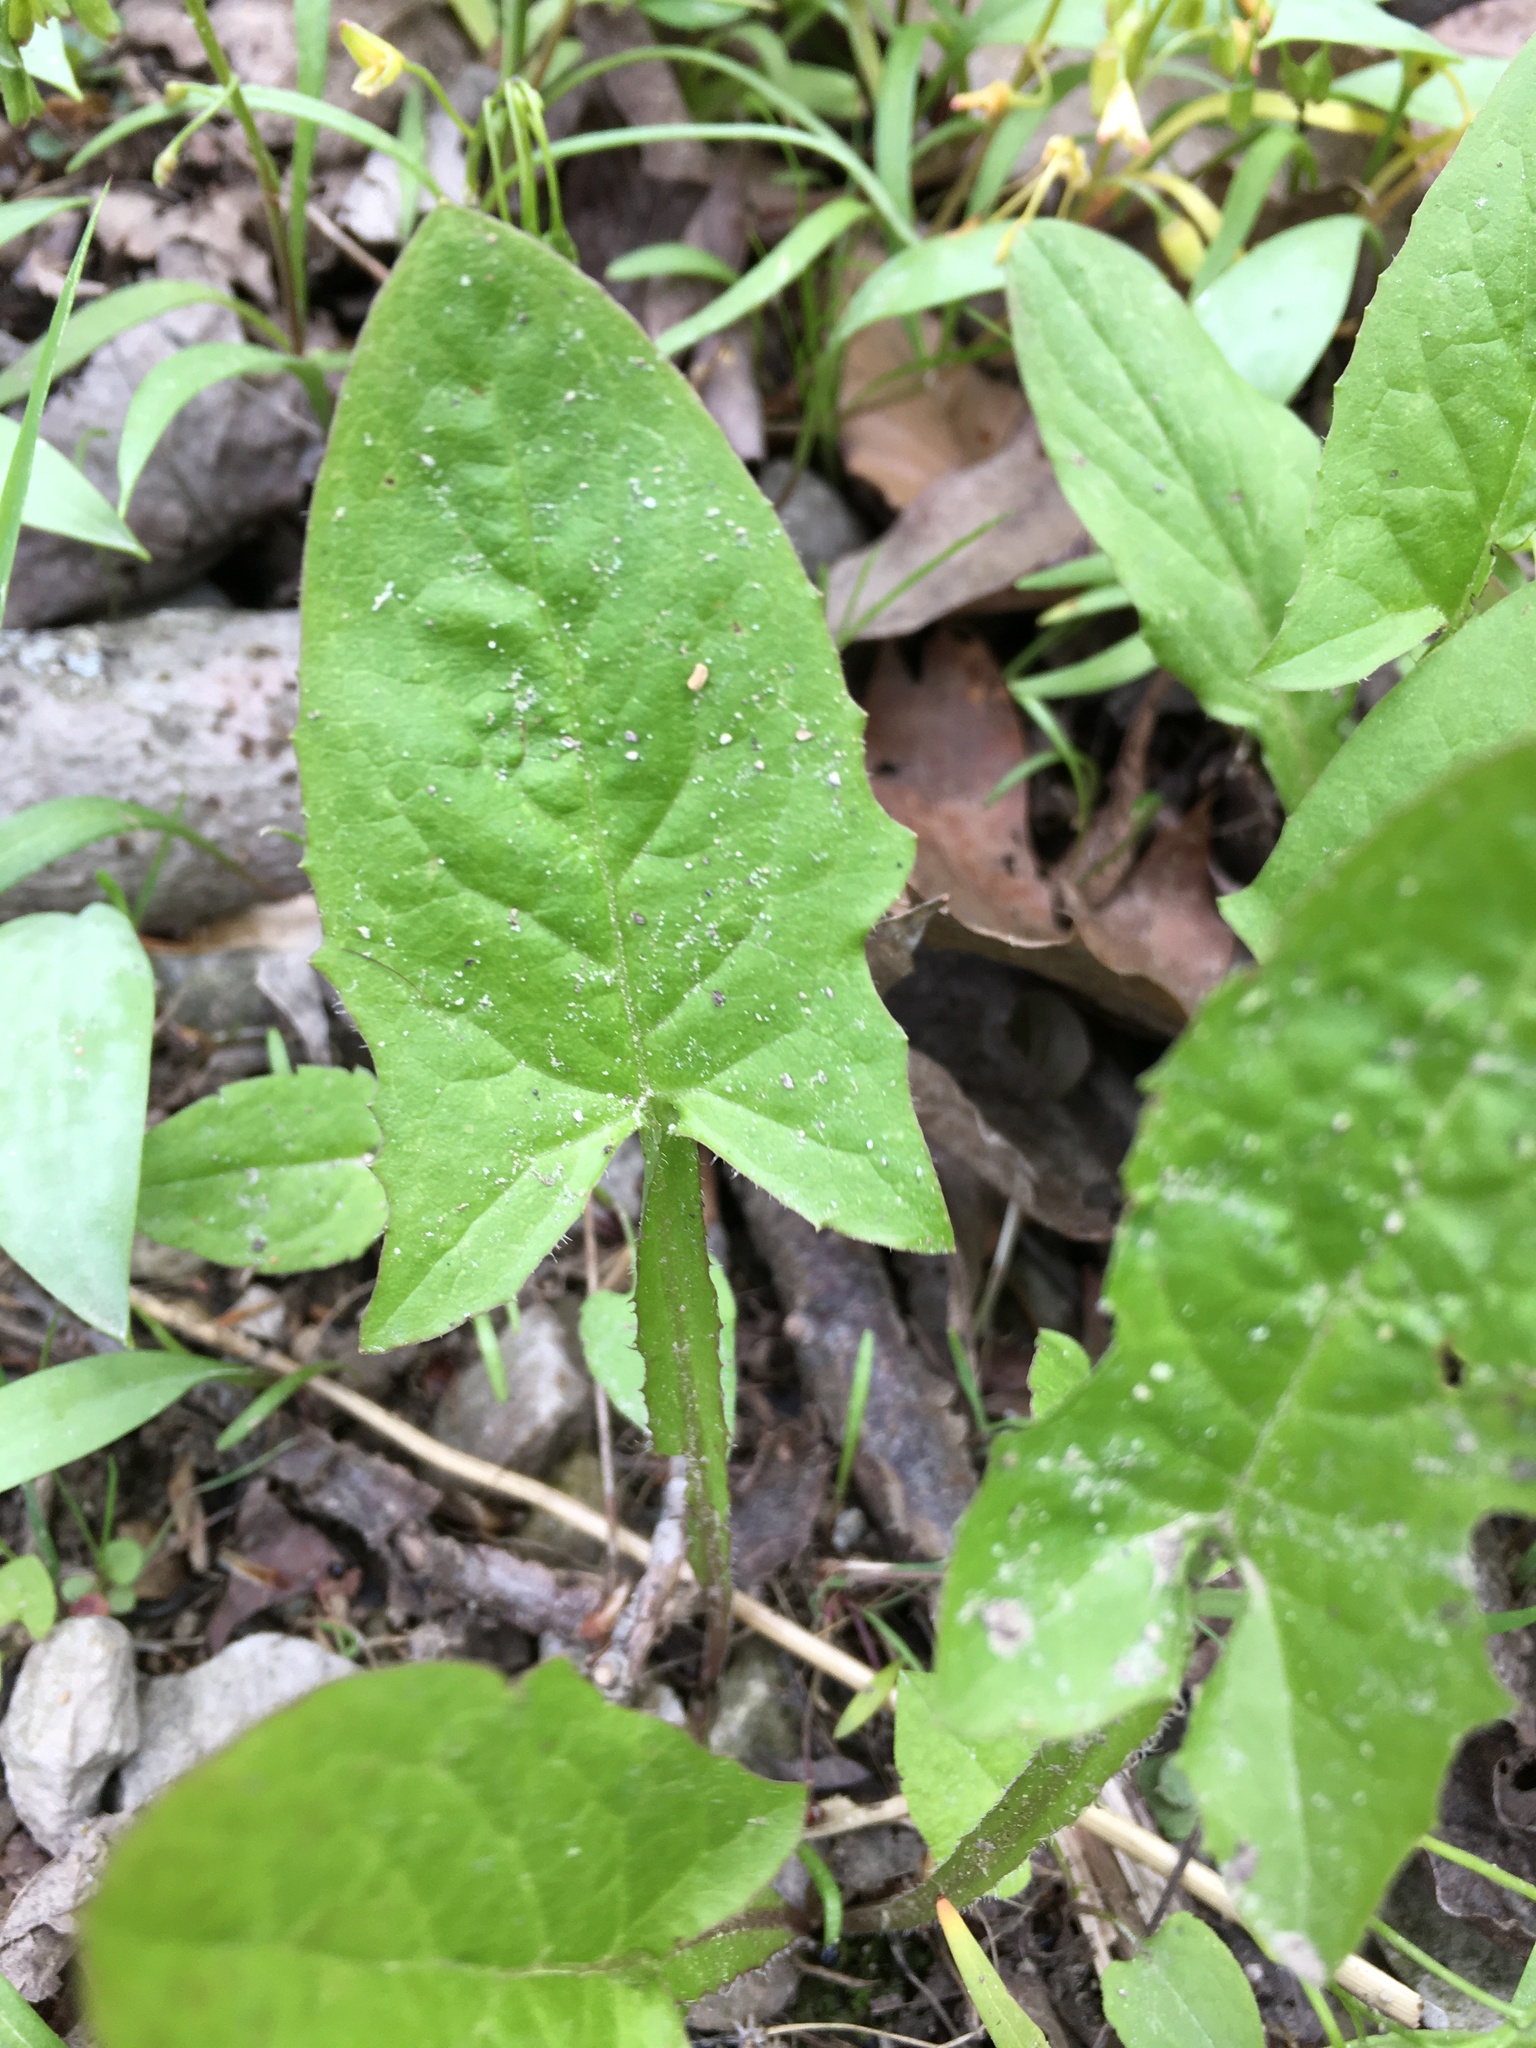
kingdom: Plantae
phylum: Tracheophyta
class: Magnoliopsida
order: Asterales
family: Asteraceae
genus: Nabalus
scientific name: Nabalus crepidineus
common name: Nodding rattlesnakeroot
